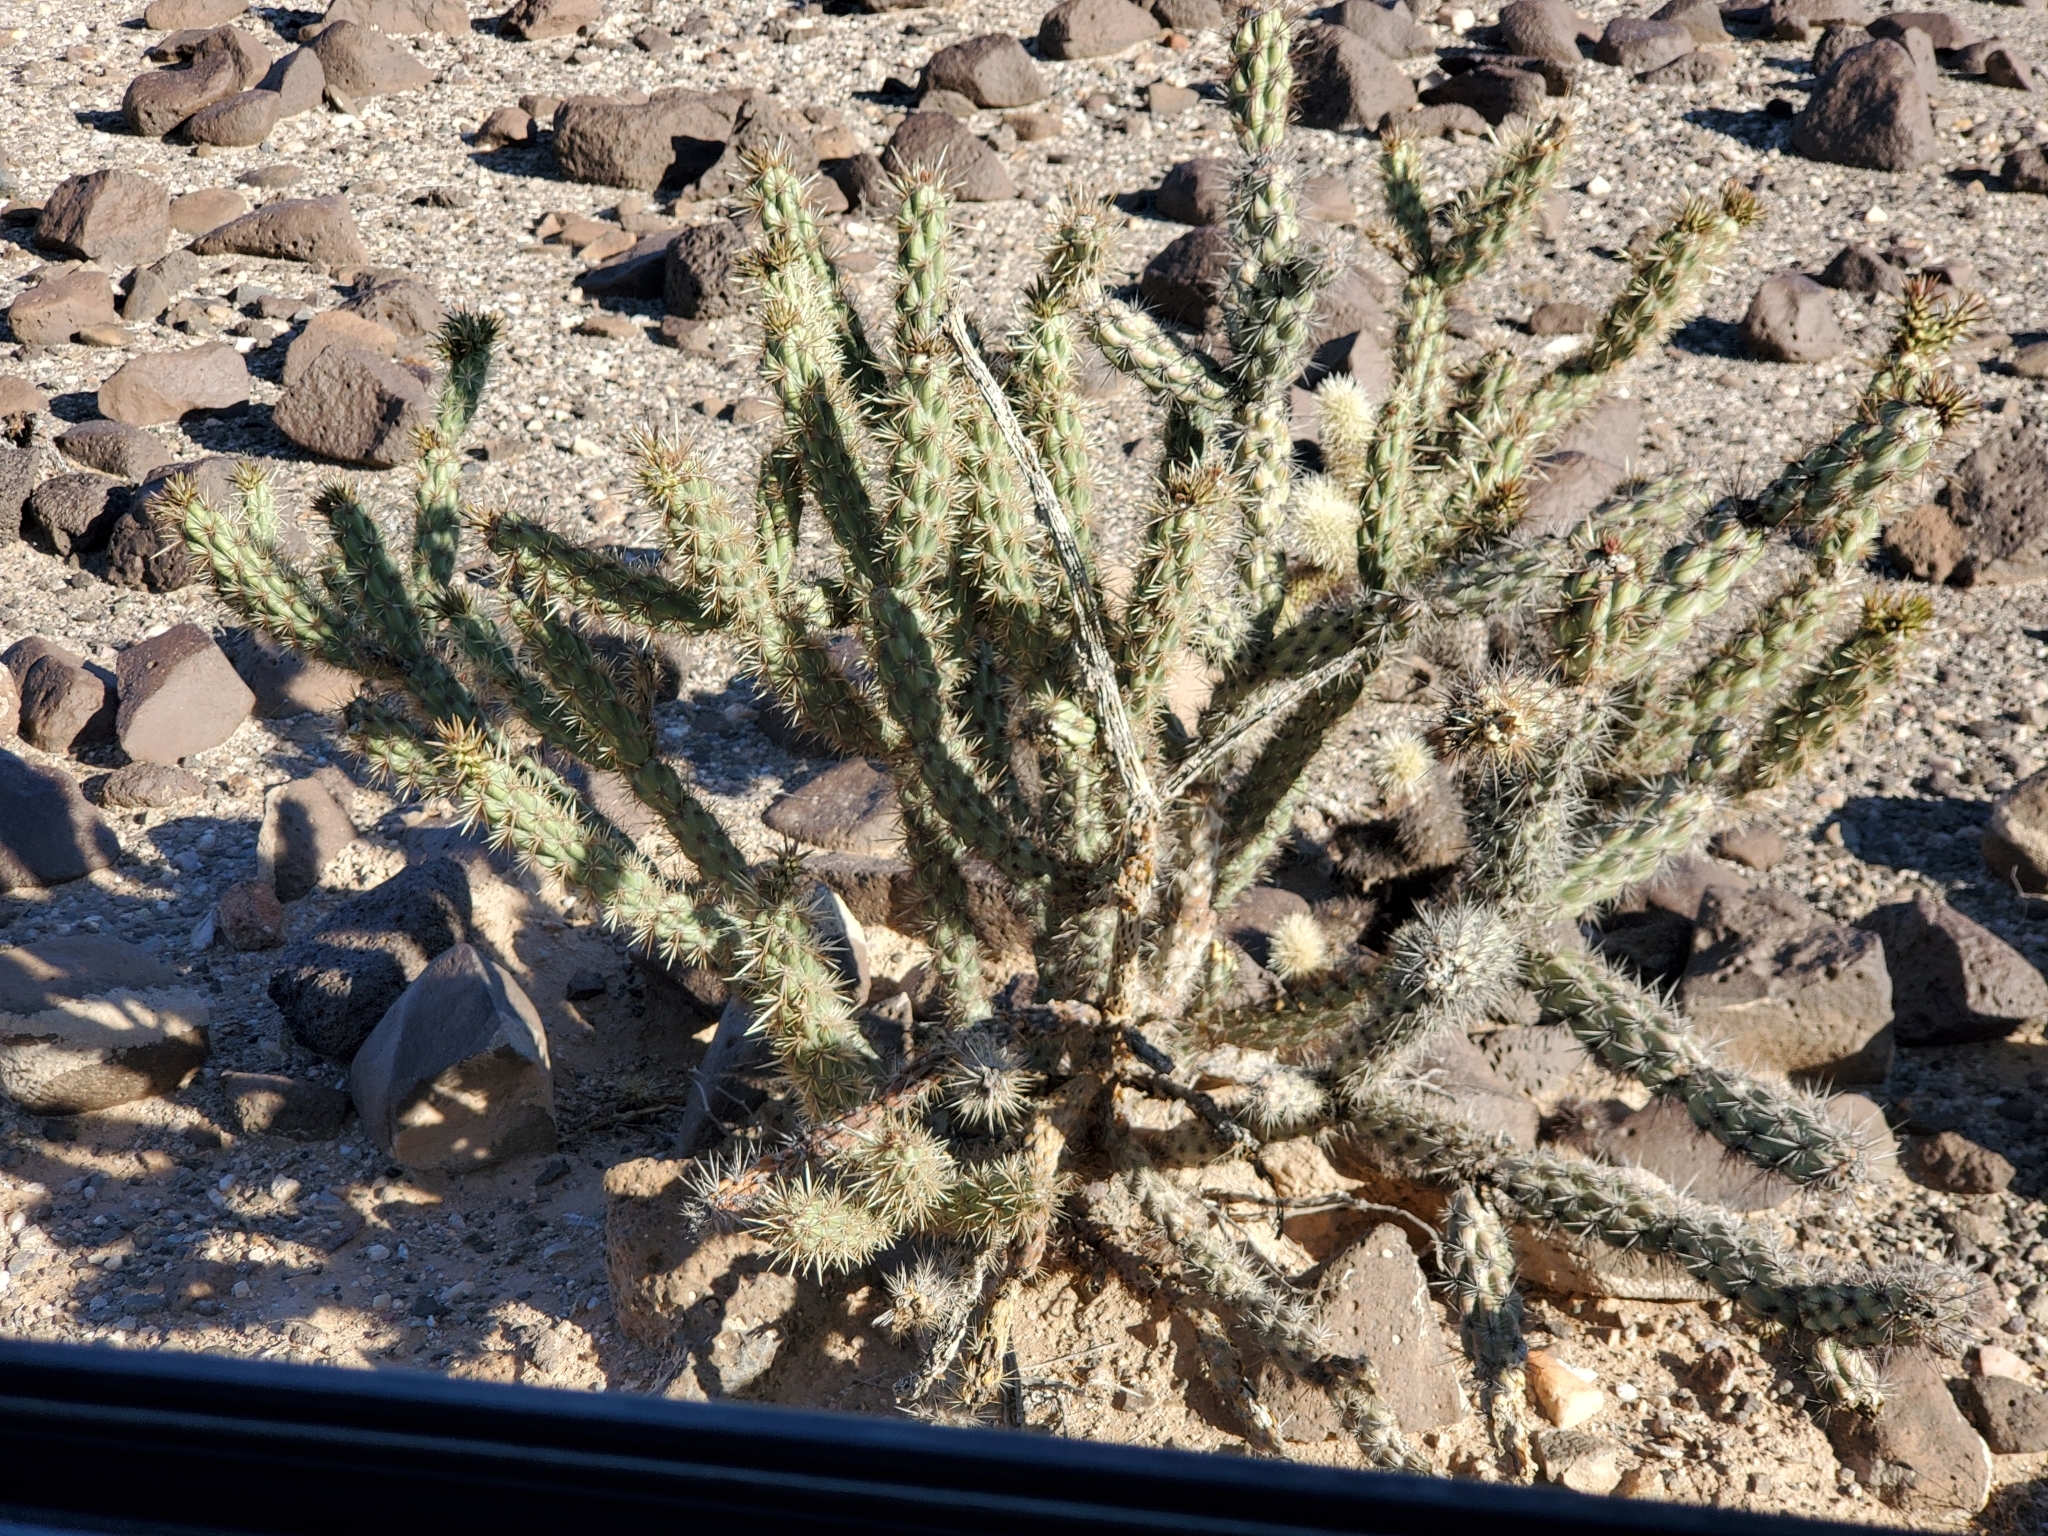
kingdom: Plantae
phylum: Tracheophyta
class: Magnoliopsida
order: Caryophyllales
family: Cactaceae
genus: Cylindropuntia
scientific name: Cylindropuntia acanthocarpa
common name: Buckhorn cholla
